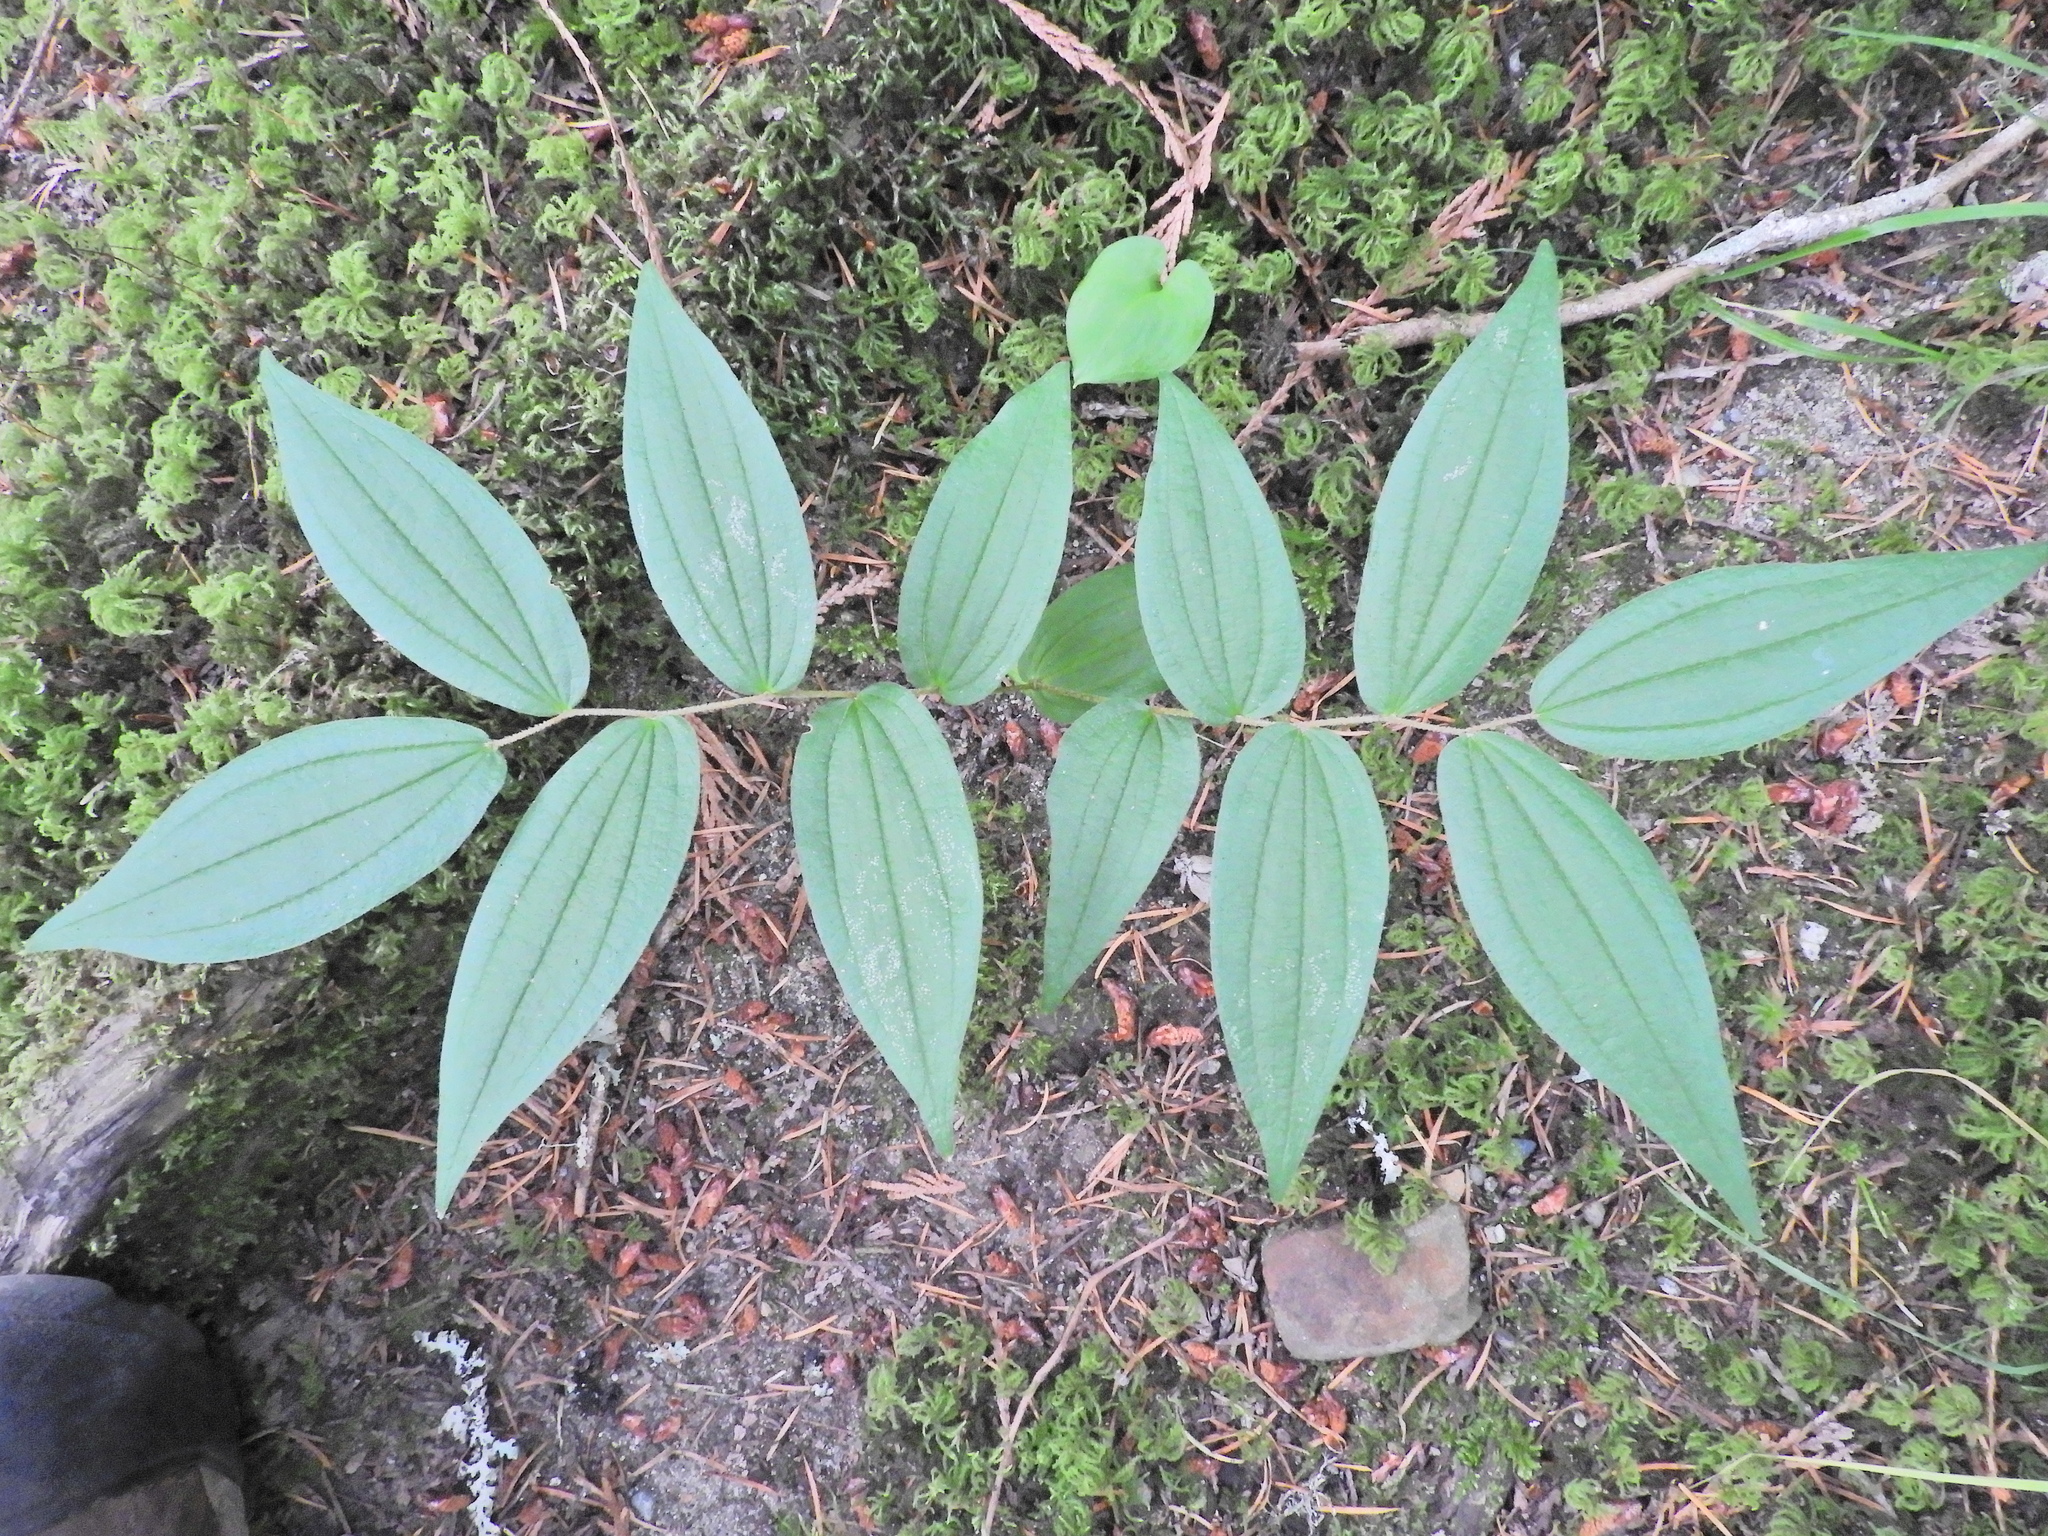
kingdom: Plantae
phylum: Tracheophyta
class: Liliopsida
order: Liliales
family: Liliaceae
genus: Prosartes
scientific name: Prosartes hookeri
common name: Fairy-bells
